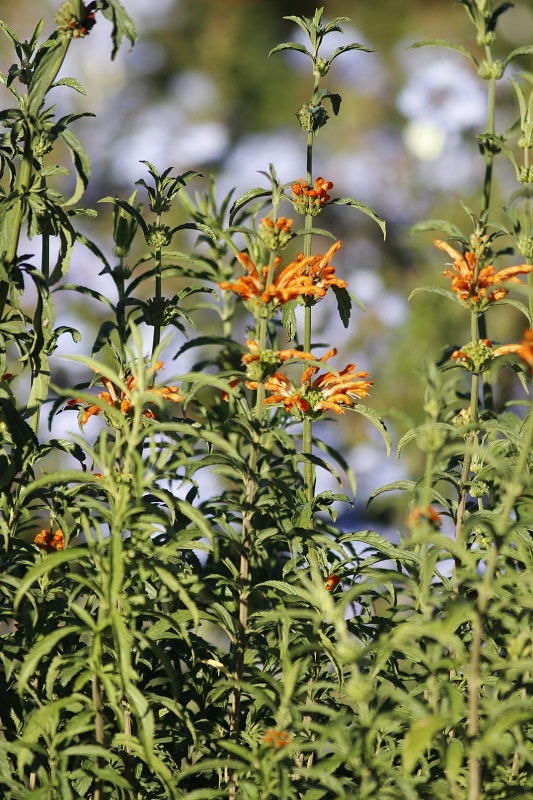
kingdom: Plantae
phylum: Tracheophyta
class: Magnoliopsida
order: Lamiales
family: Lamiaceae
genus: Leonotis
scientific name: Leonotis leonurus
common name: Lion's ear
